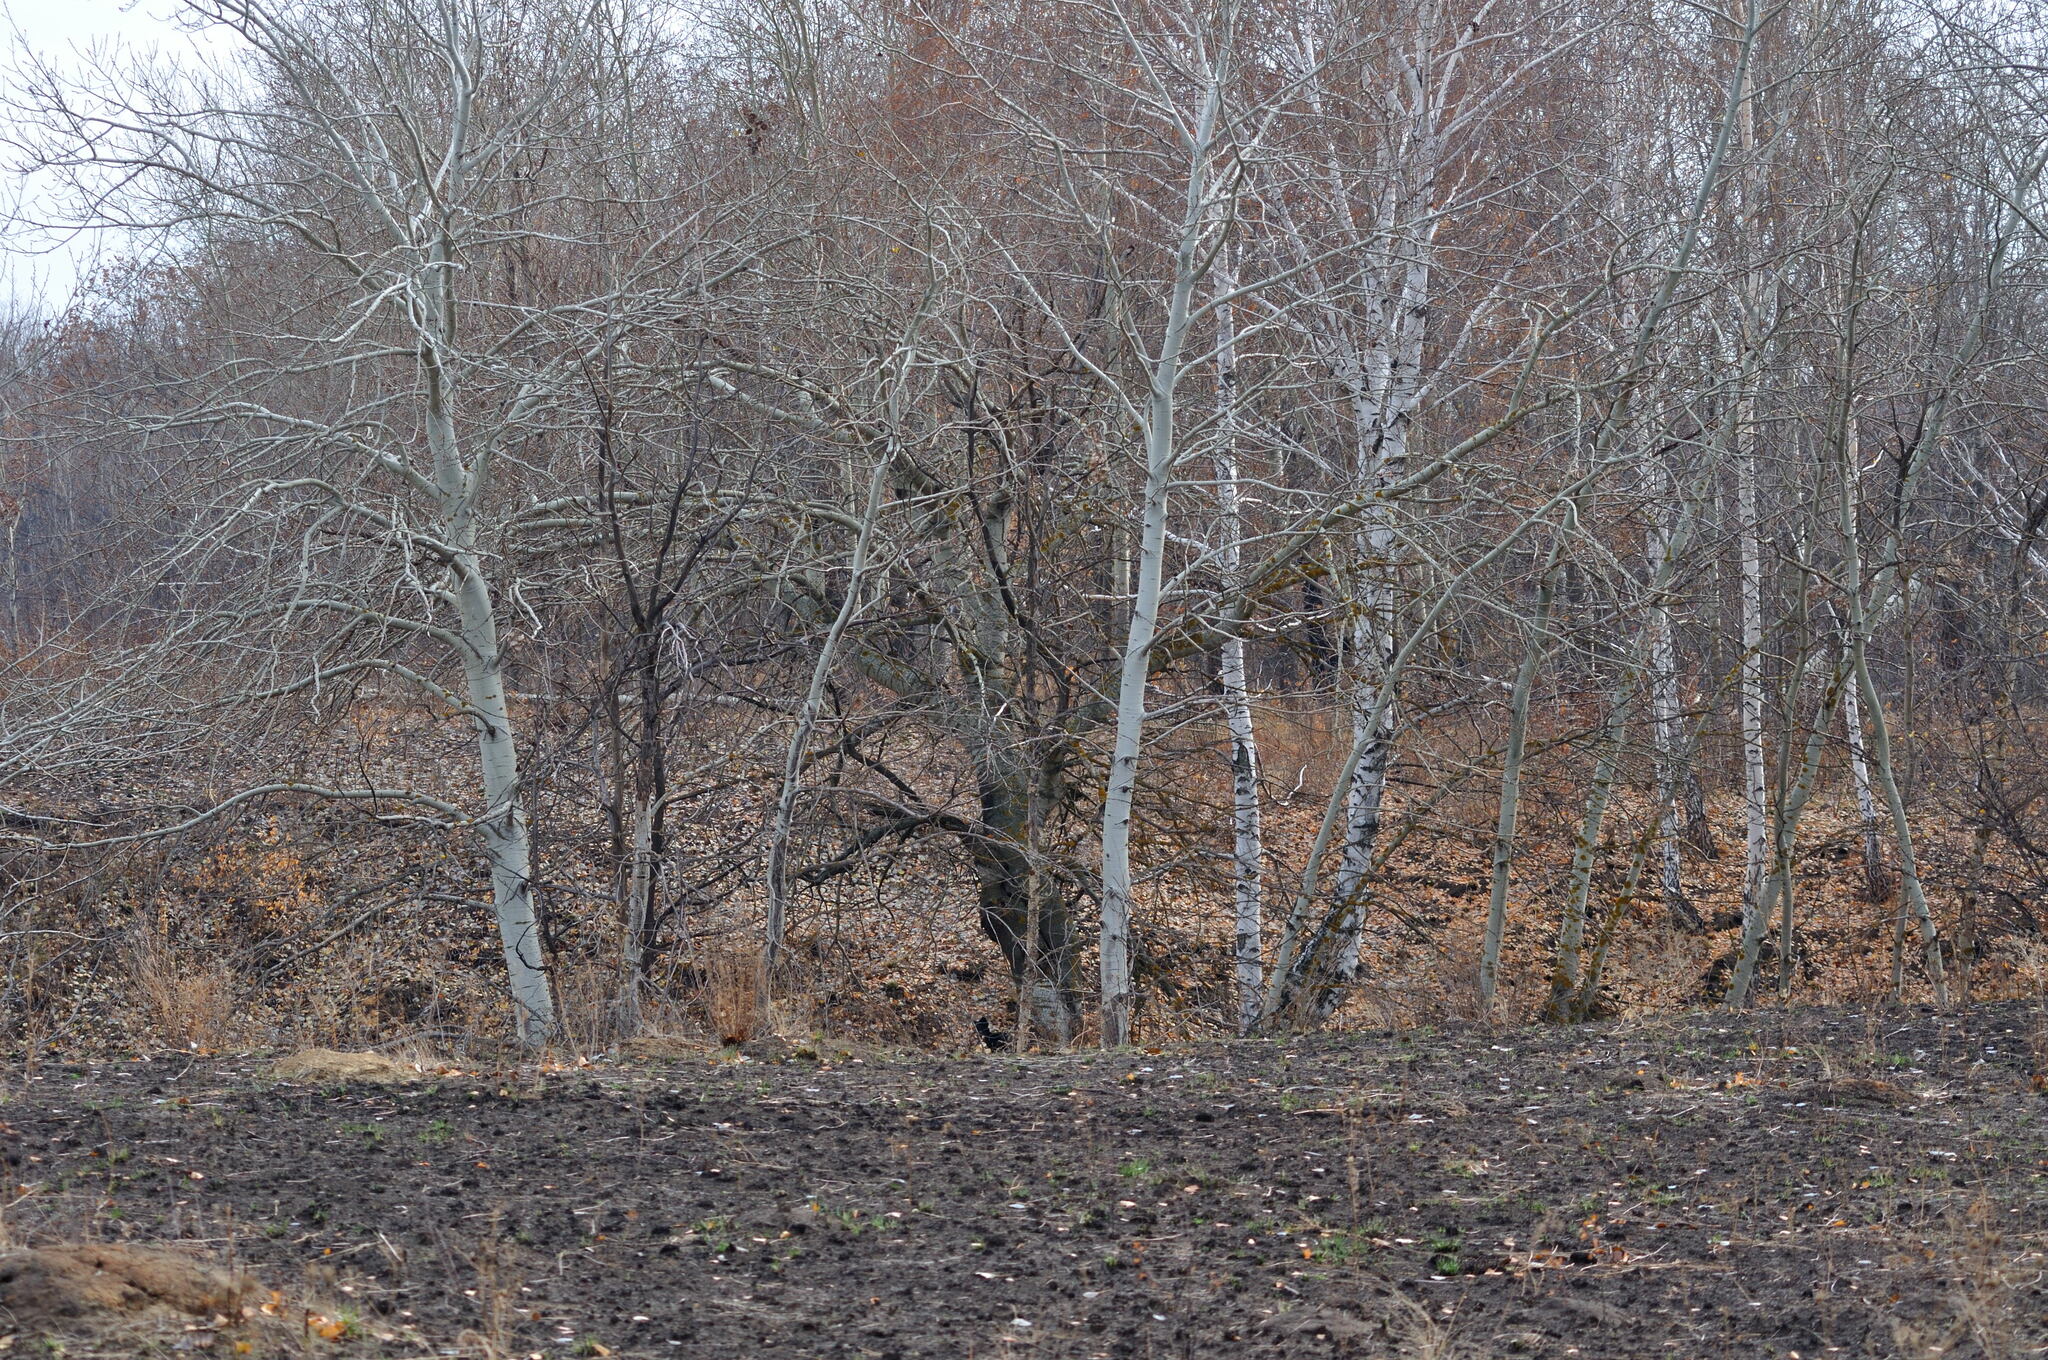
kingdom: Plantae
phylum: Tracheophyta
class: Magnoliopsida
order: Malpighiales
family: Salicaceae
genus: Populus
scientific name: Populus tremula
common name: European aspen
